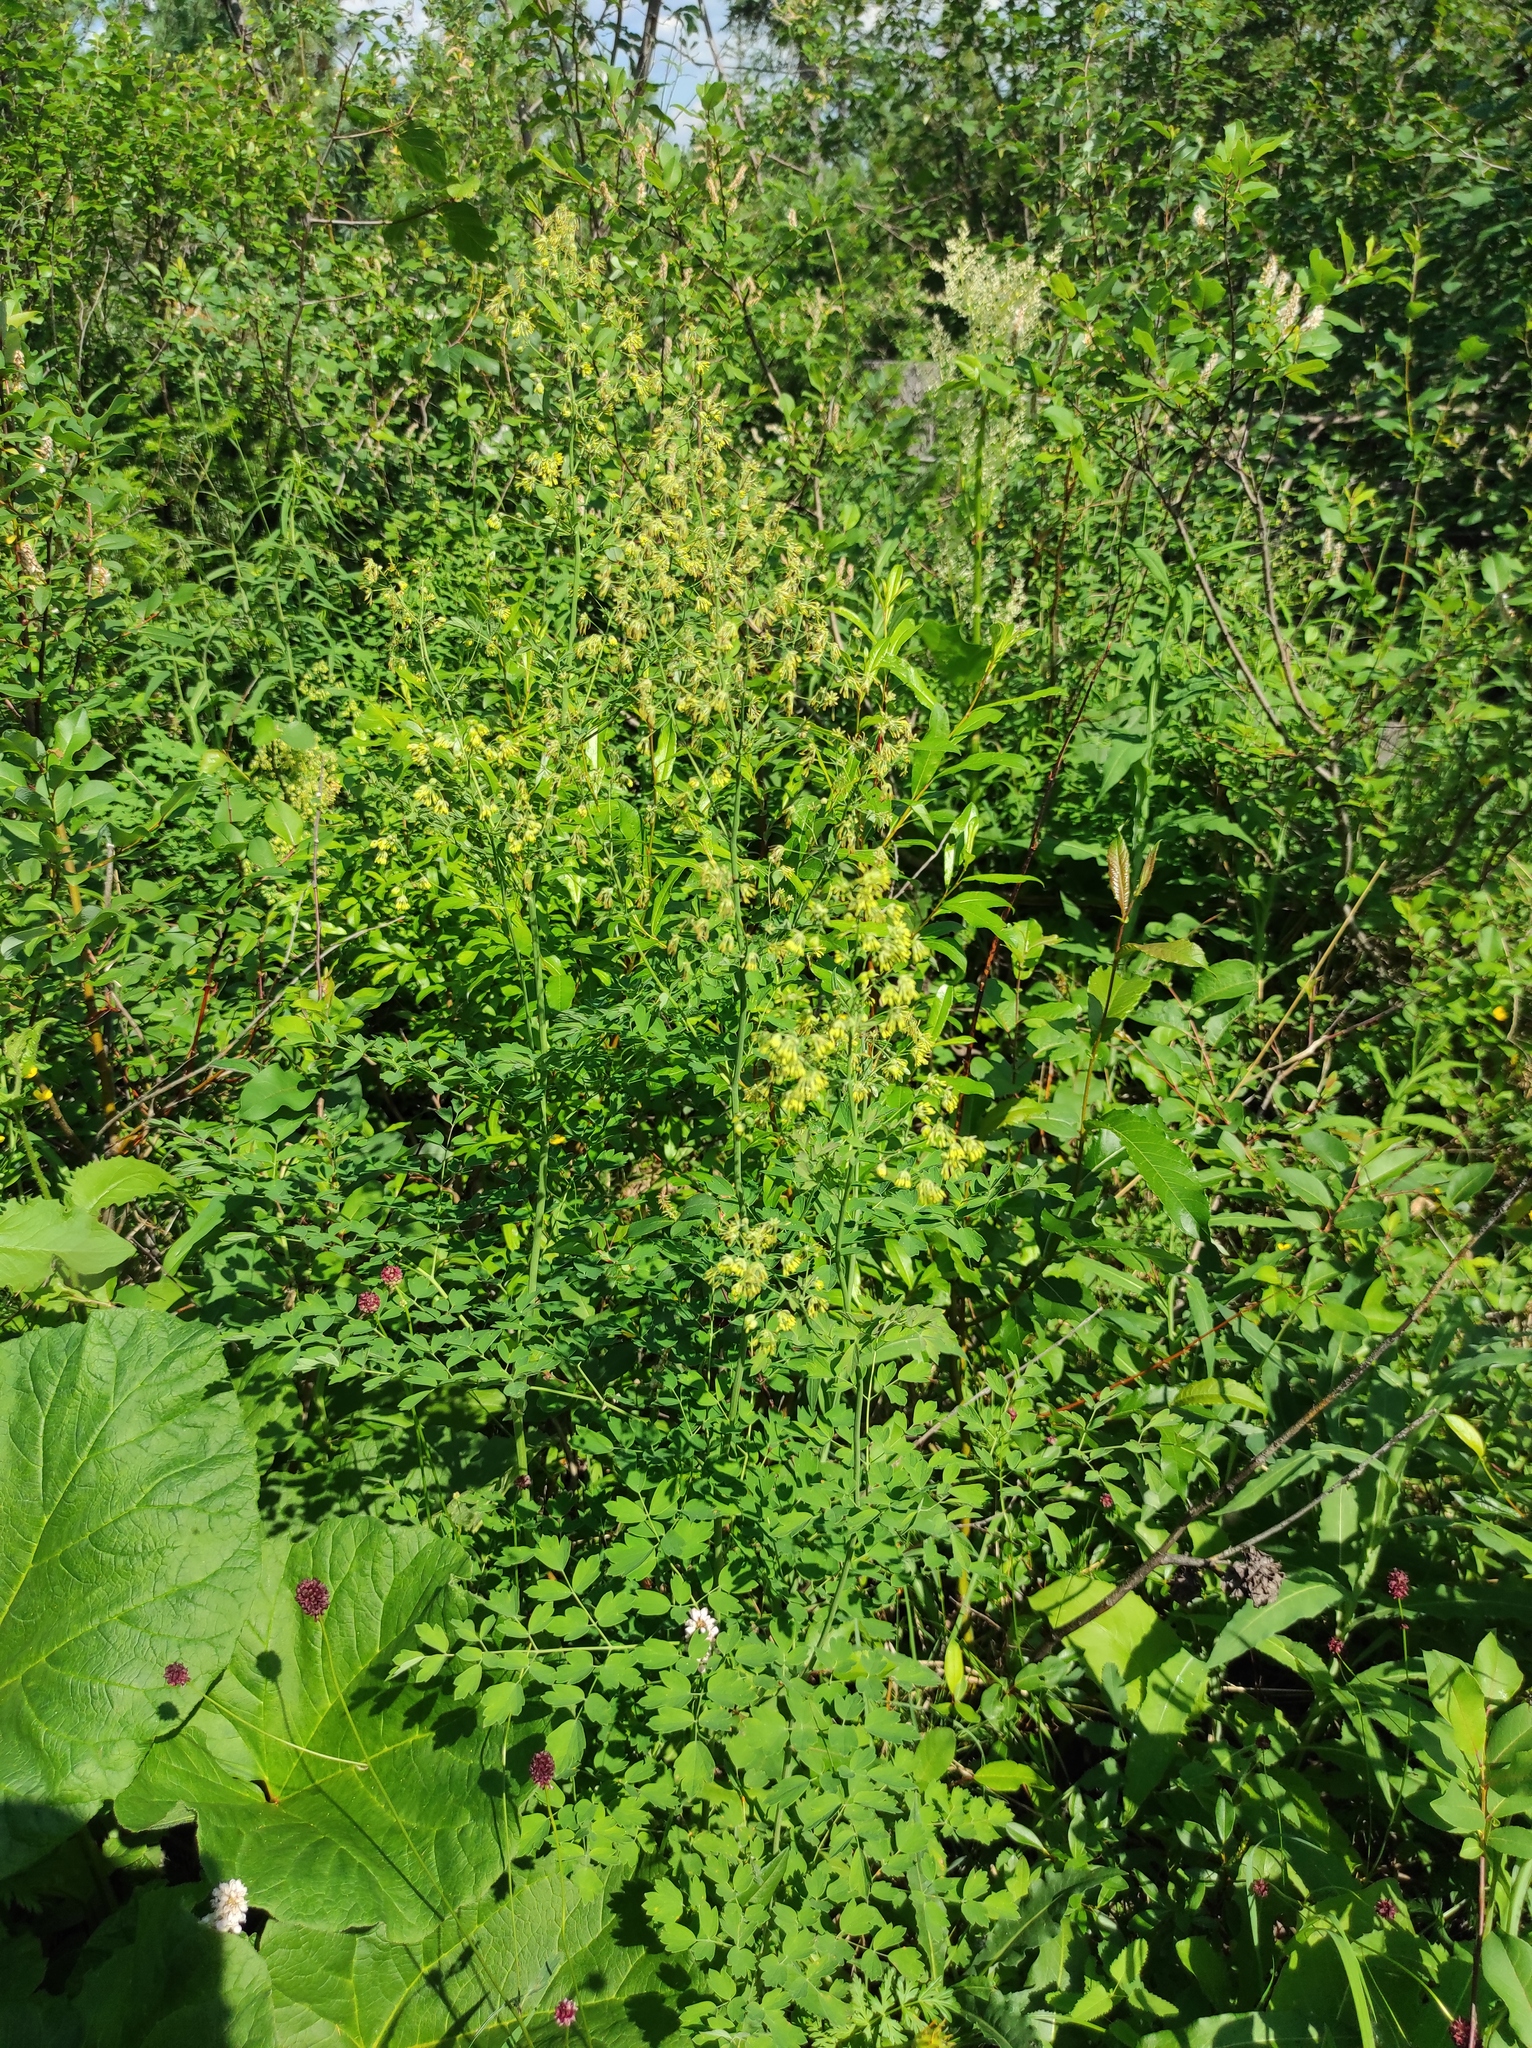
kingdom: Plantae
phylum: Tracheophyta
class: Magnoliopsida
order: Ranunculales
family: Ranunculaceae
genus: Thalictrum
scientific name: Thalictrum minus
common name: Lesser meadow-rue
